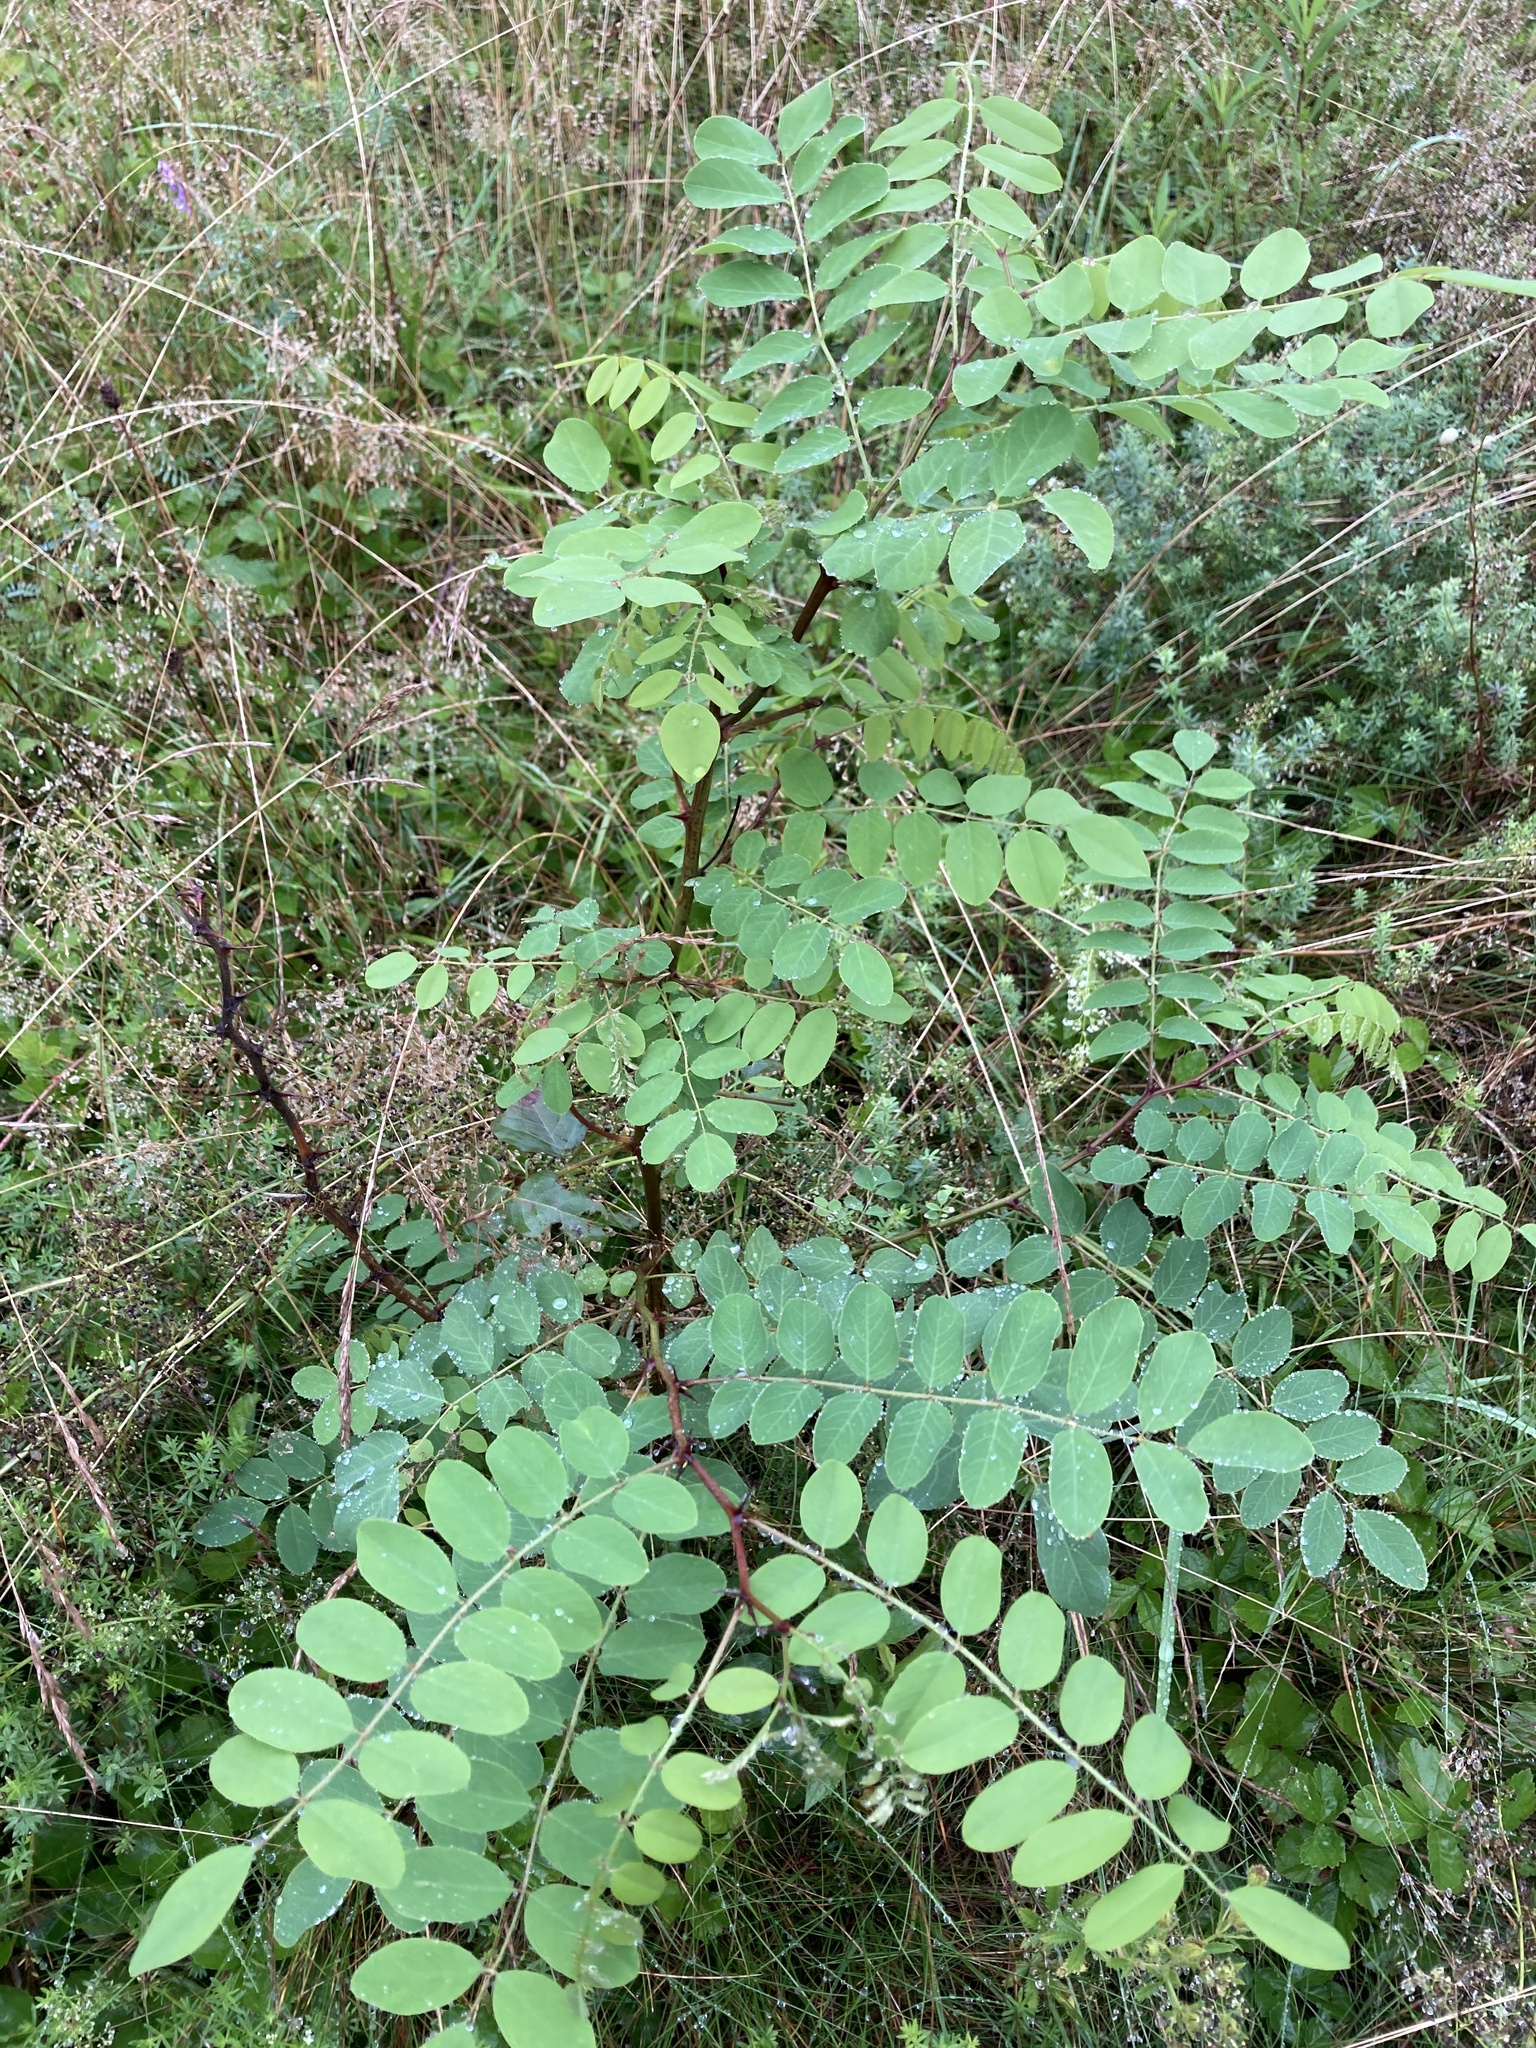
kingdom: Plantae
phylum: Tracheophyta
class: Magnoliopsida
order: Fabales
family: Fabaceae
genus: Robinia
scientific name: Robinia pseudoacacia
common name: Black locust
